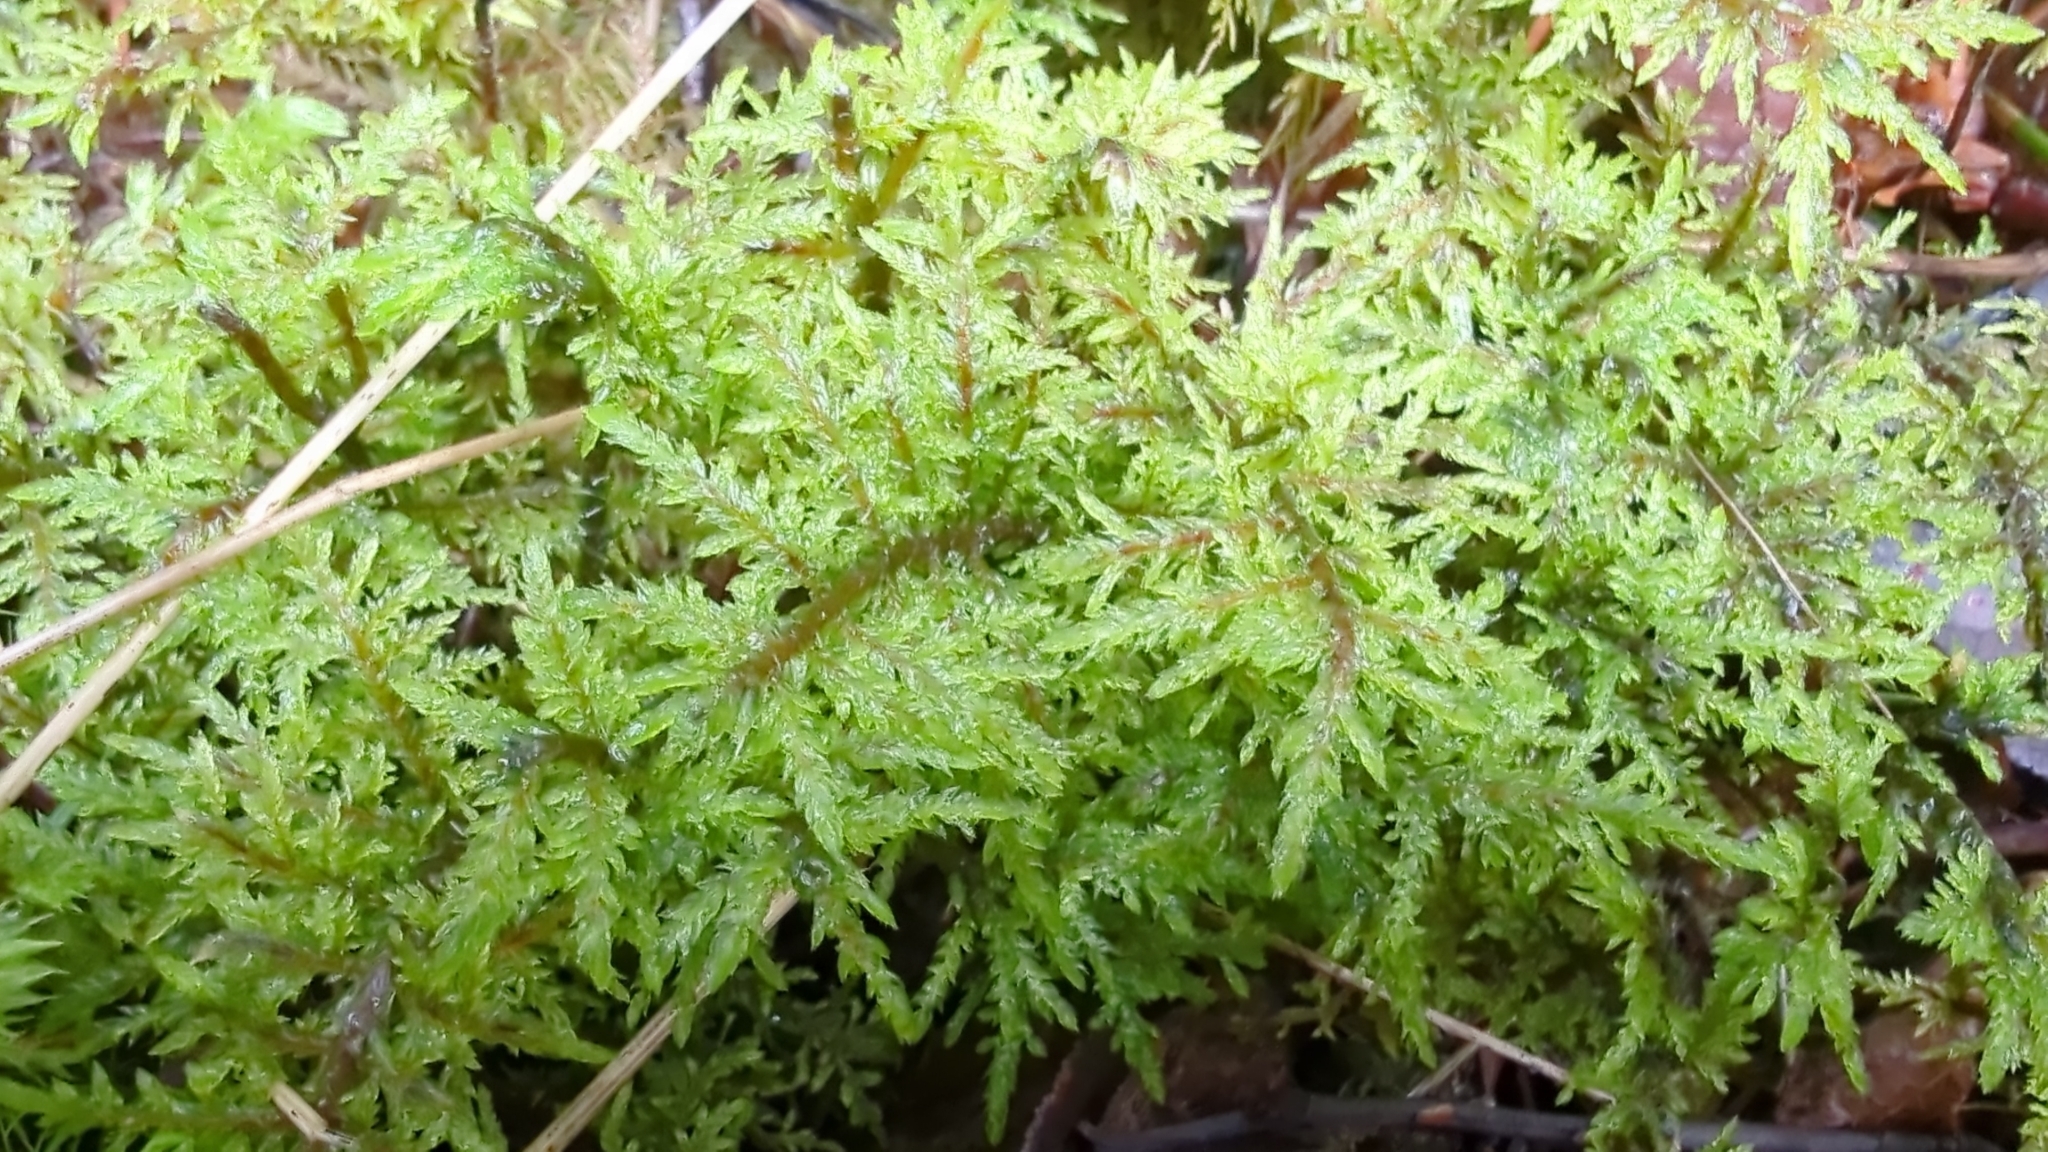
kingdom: Plantae
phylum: Bryophyta
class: Bryopsida
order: Hypnales
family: Hylocomiaceae
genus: Hylocomium
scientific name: Hylocomium splendens
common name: Stairstep moss
